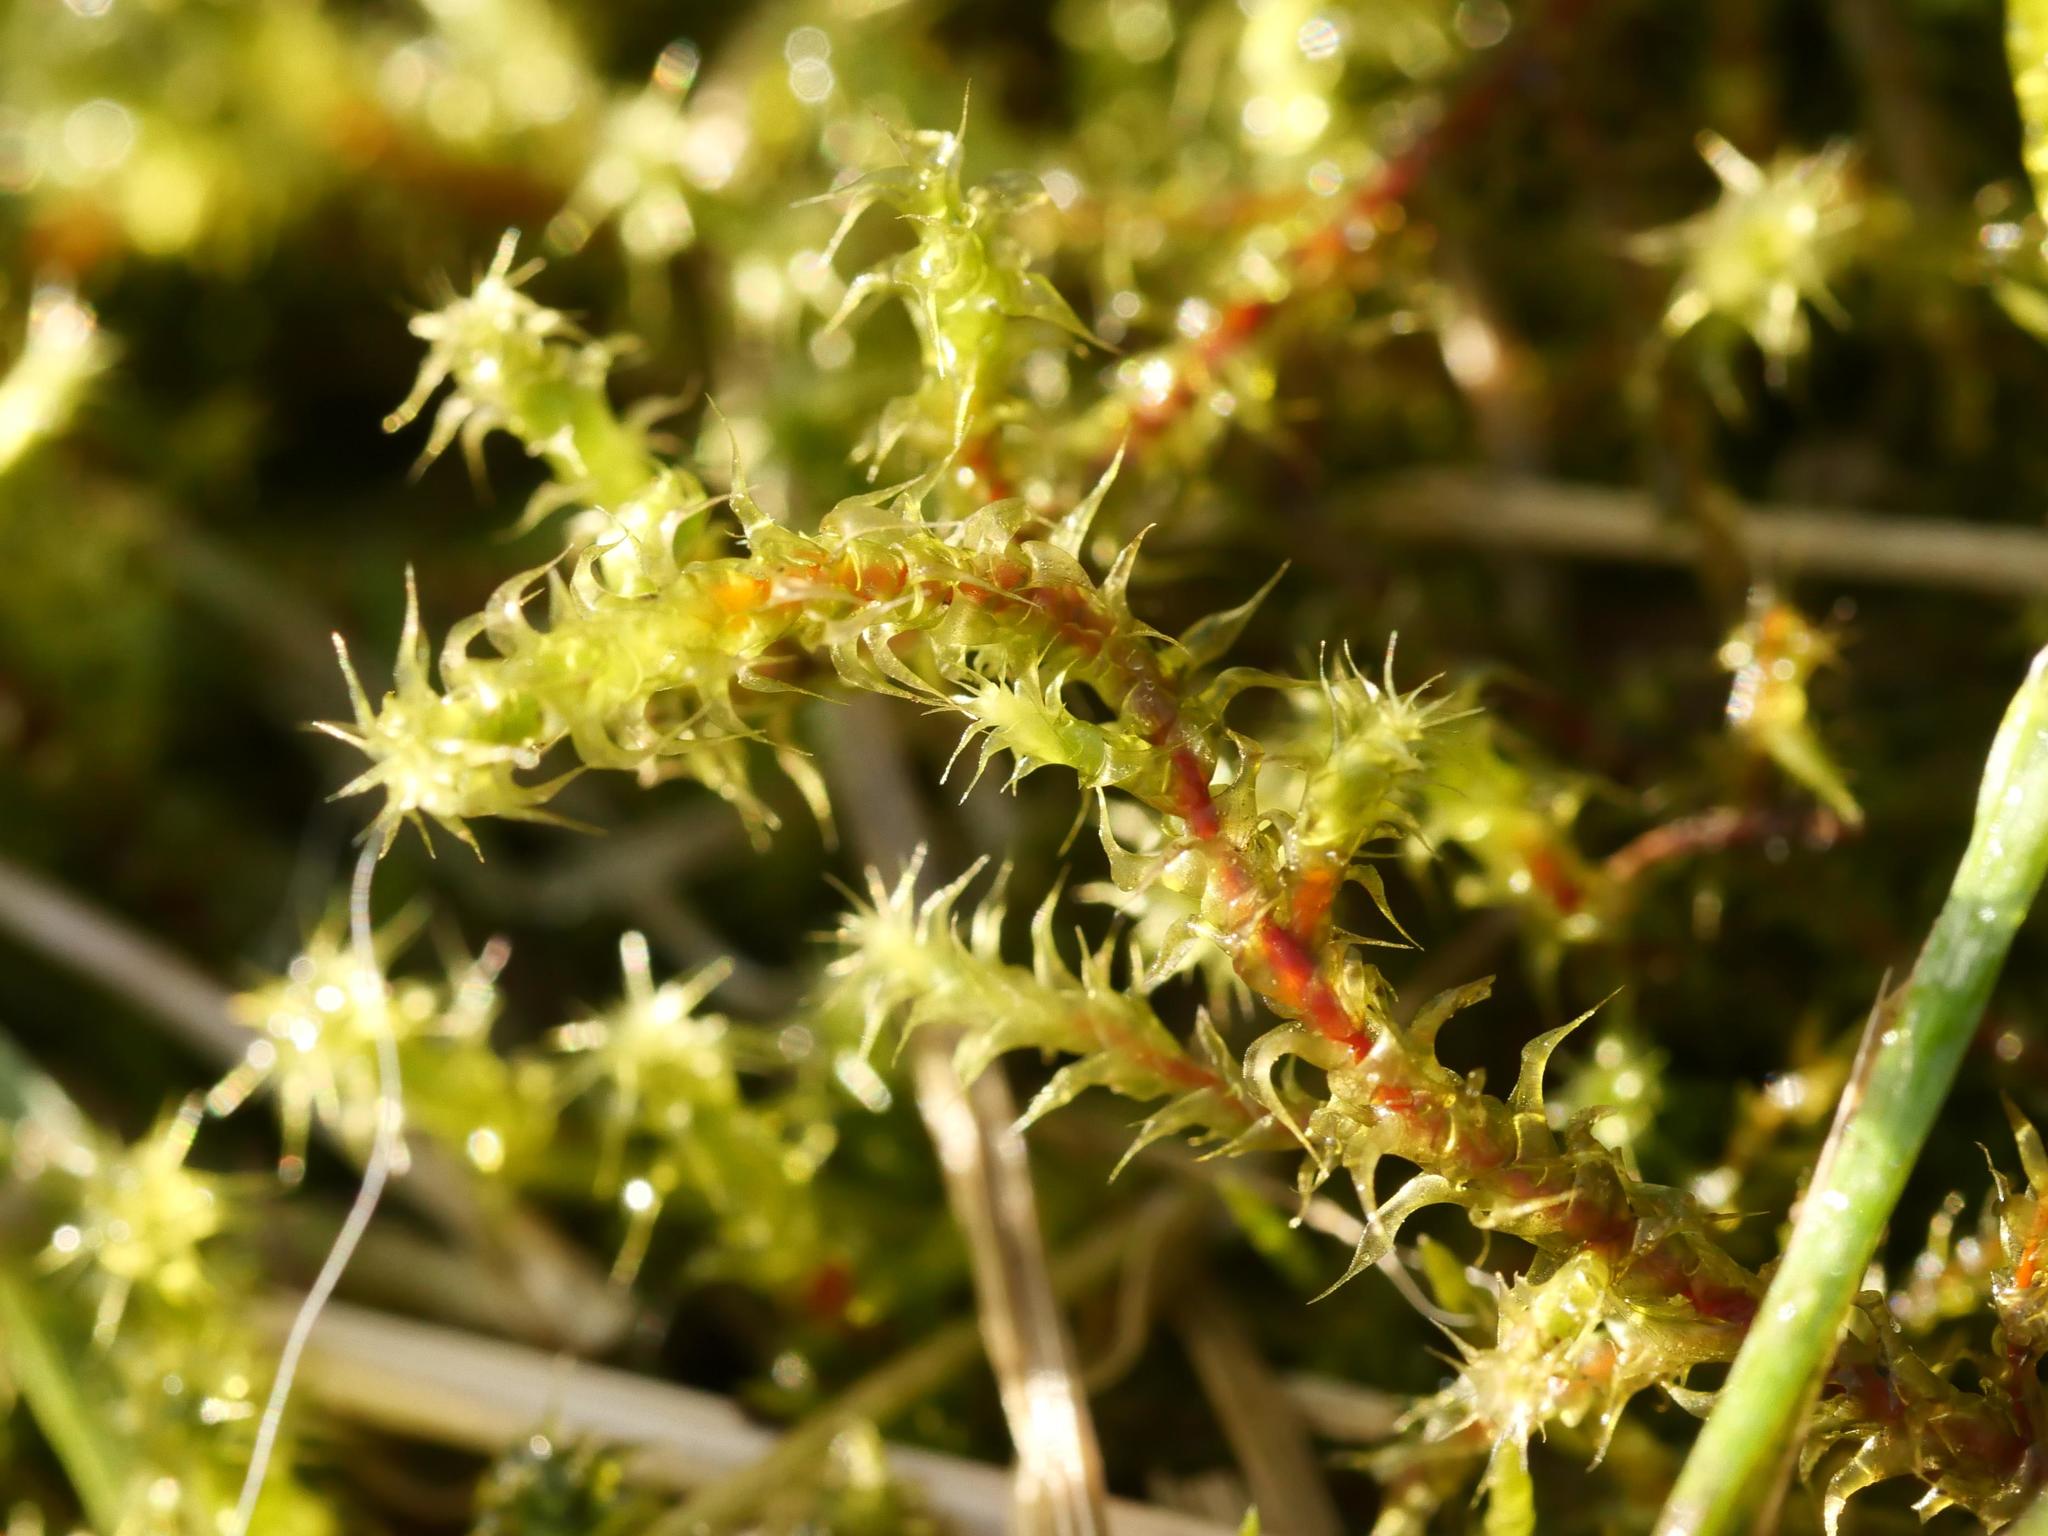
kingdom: Plantae
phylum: Bryophyta
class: Bryopsida
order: Hypnales
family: Hylocomiaceae
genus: Rhytidiadelphus
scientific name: Rhytidiadelphus squarrosus
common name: Springy turf-moss
